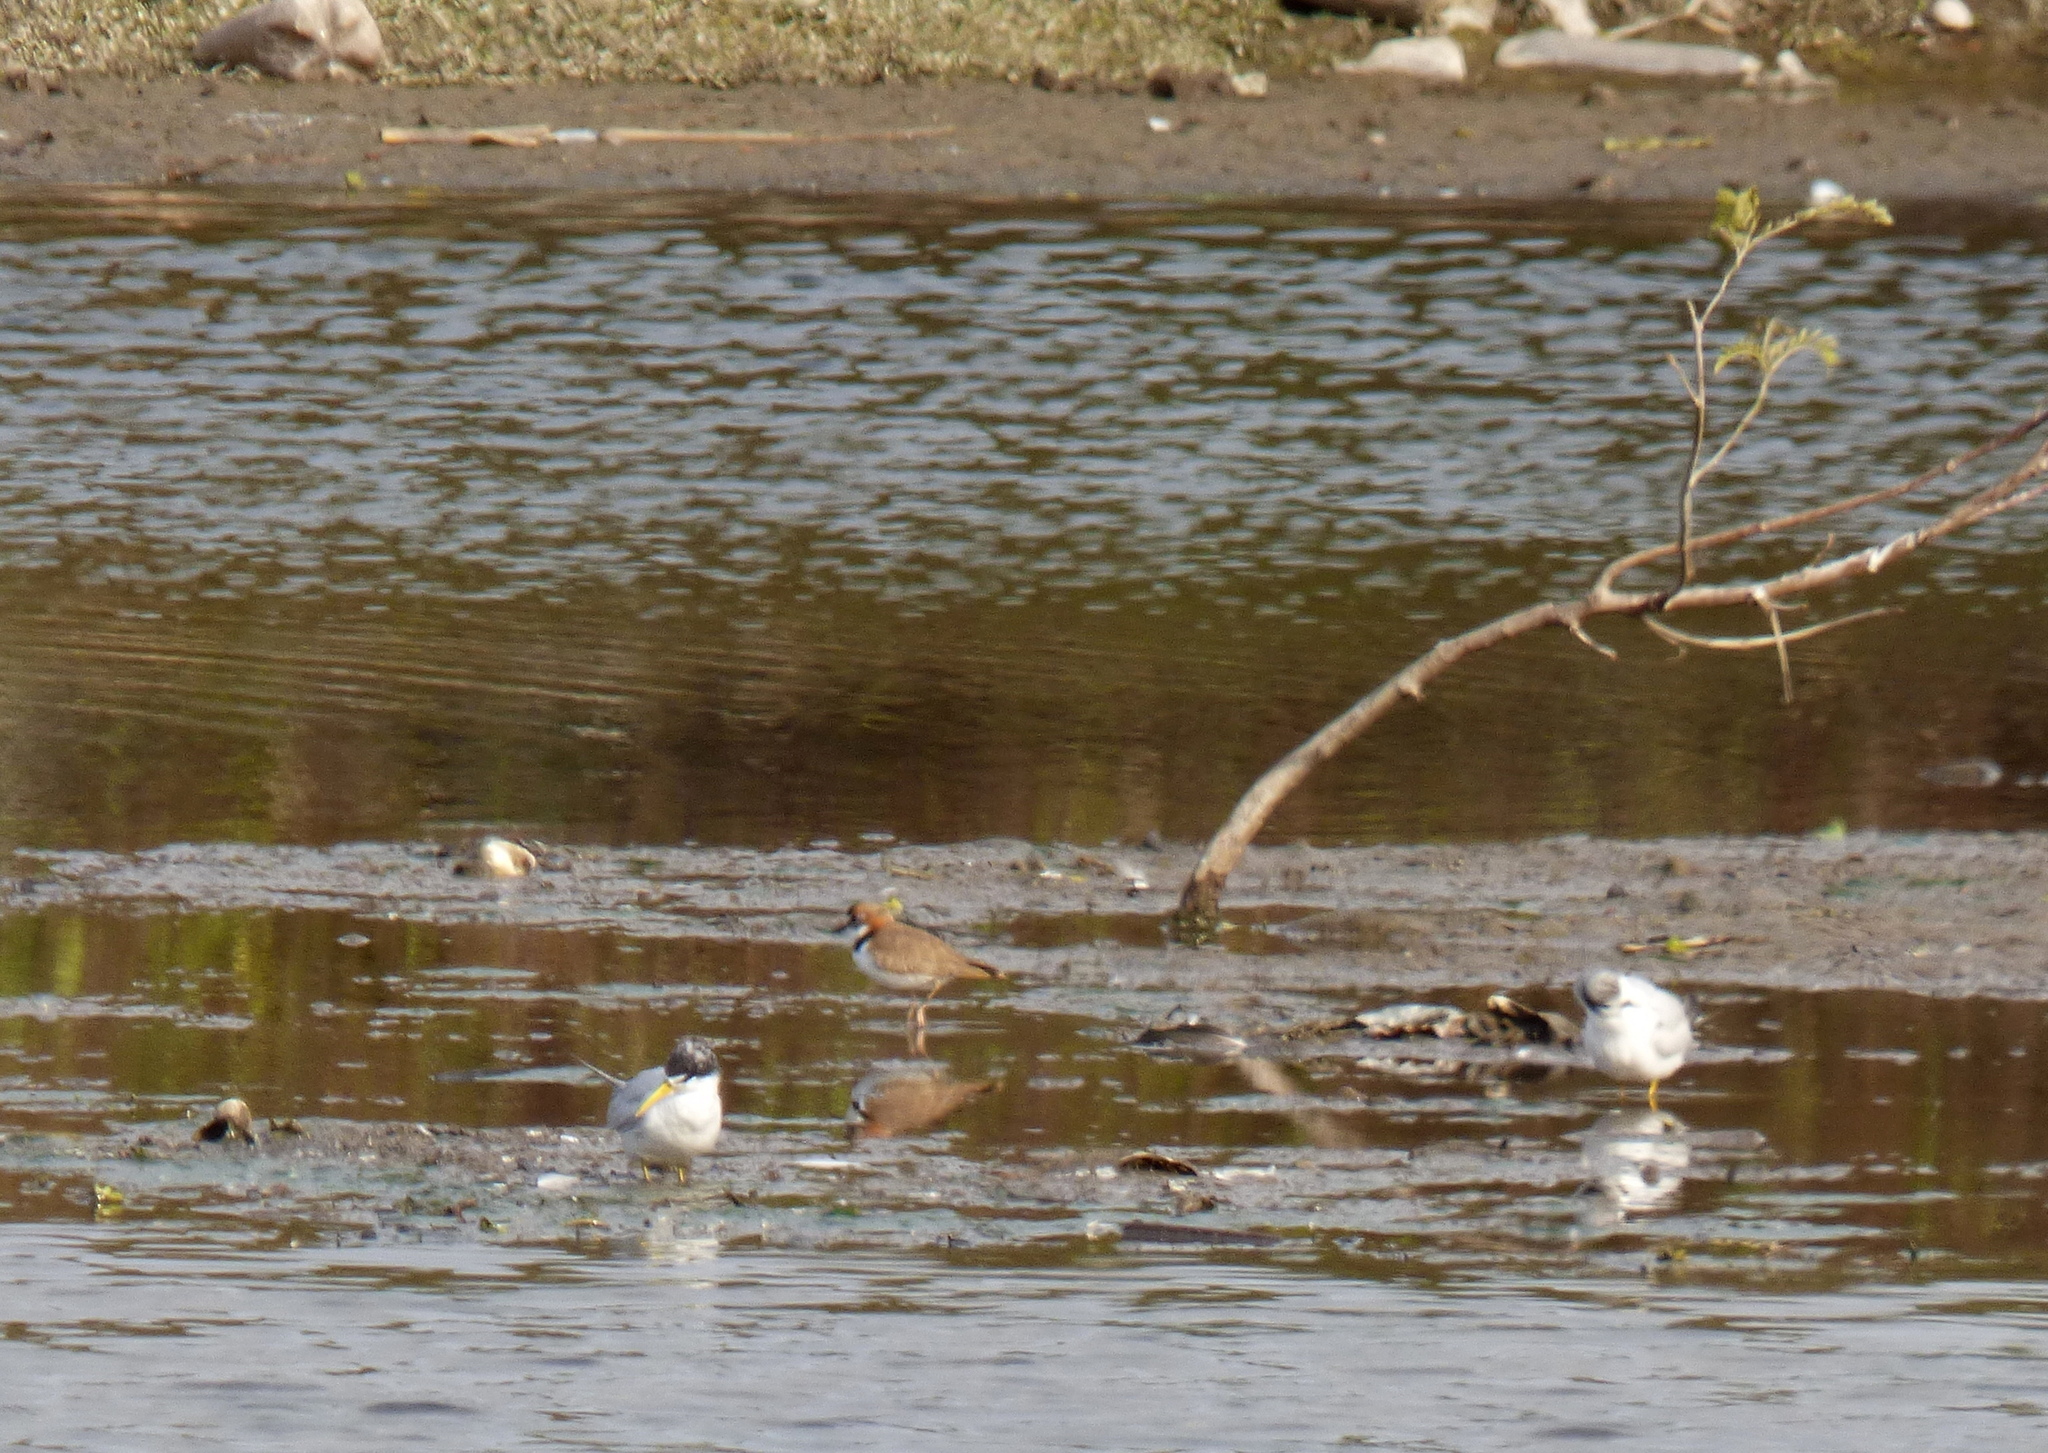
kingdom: Animalia
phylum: Chordata
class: Aves
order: Charadriiformes
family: Charadriidae
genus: Anarhynchus
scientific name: Anarhynchus
